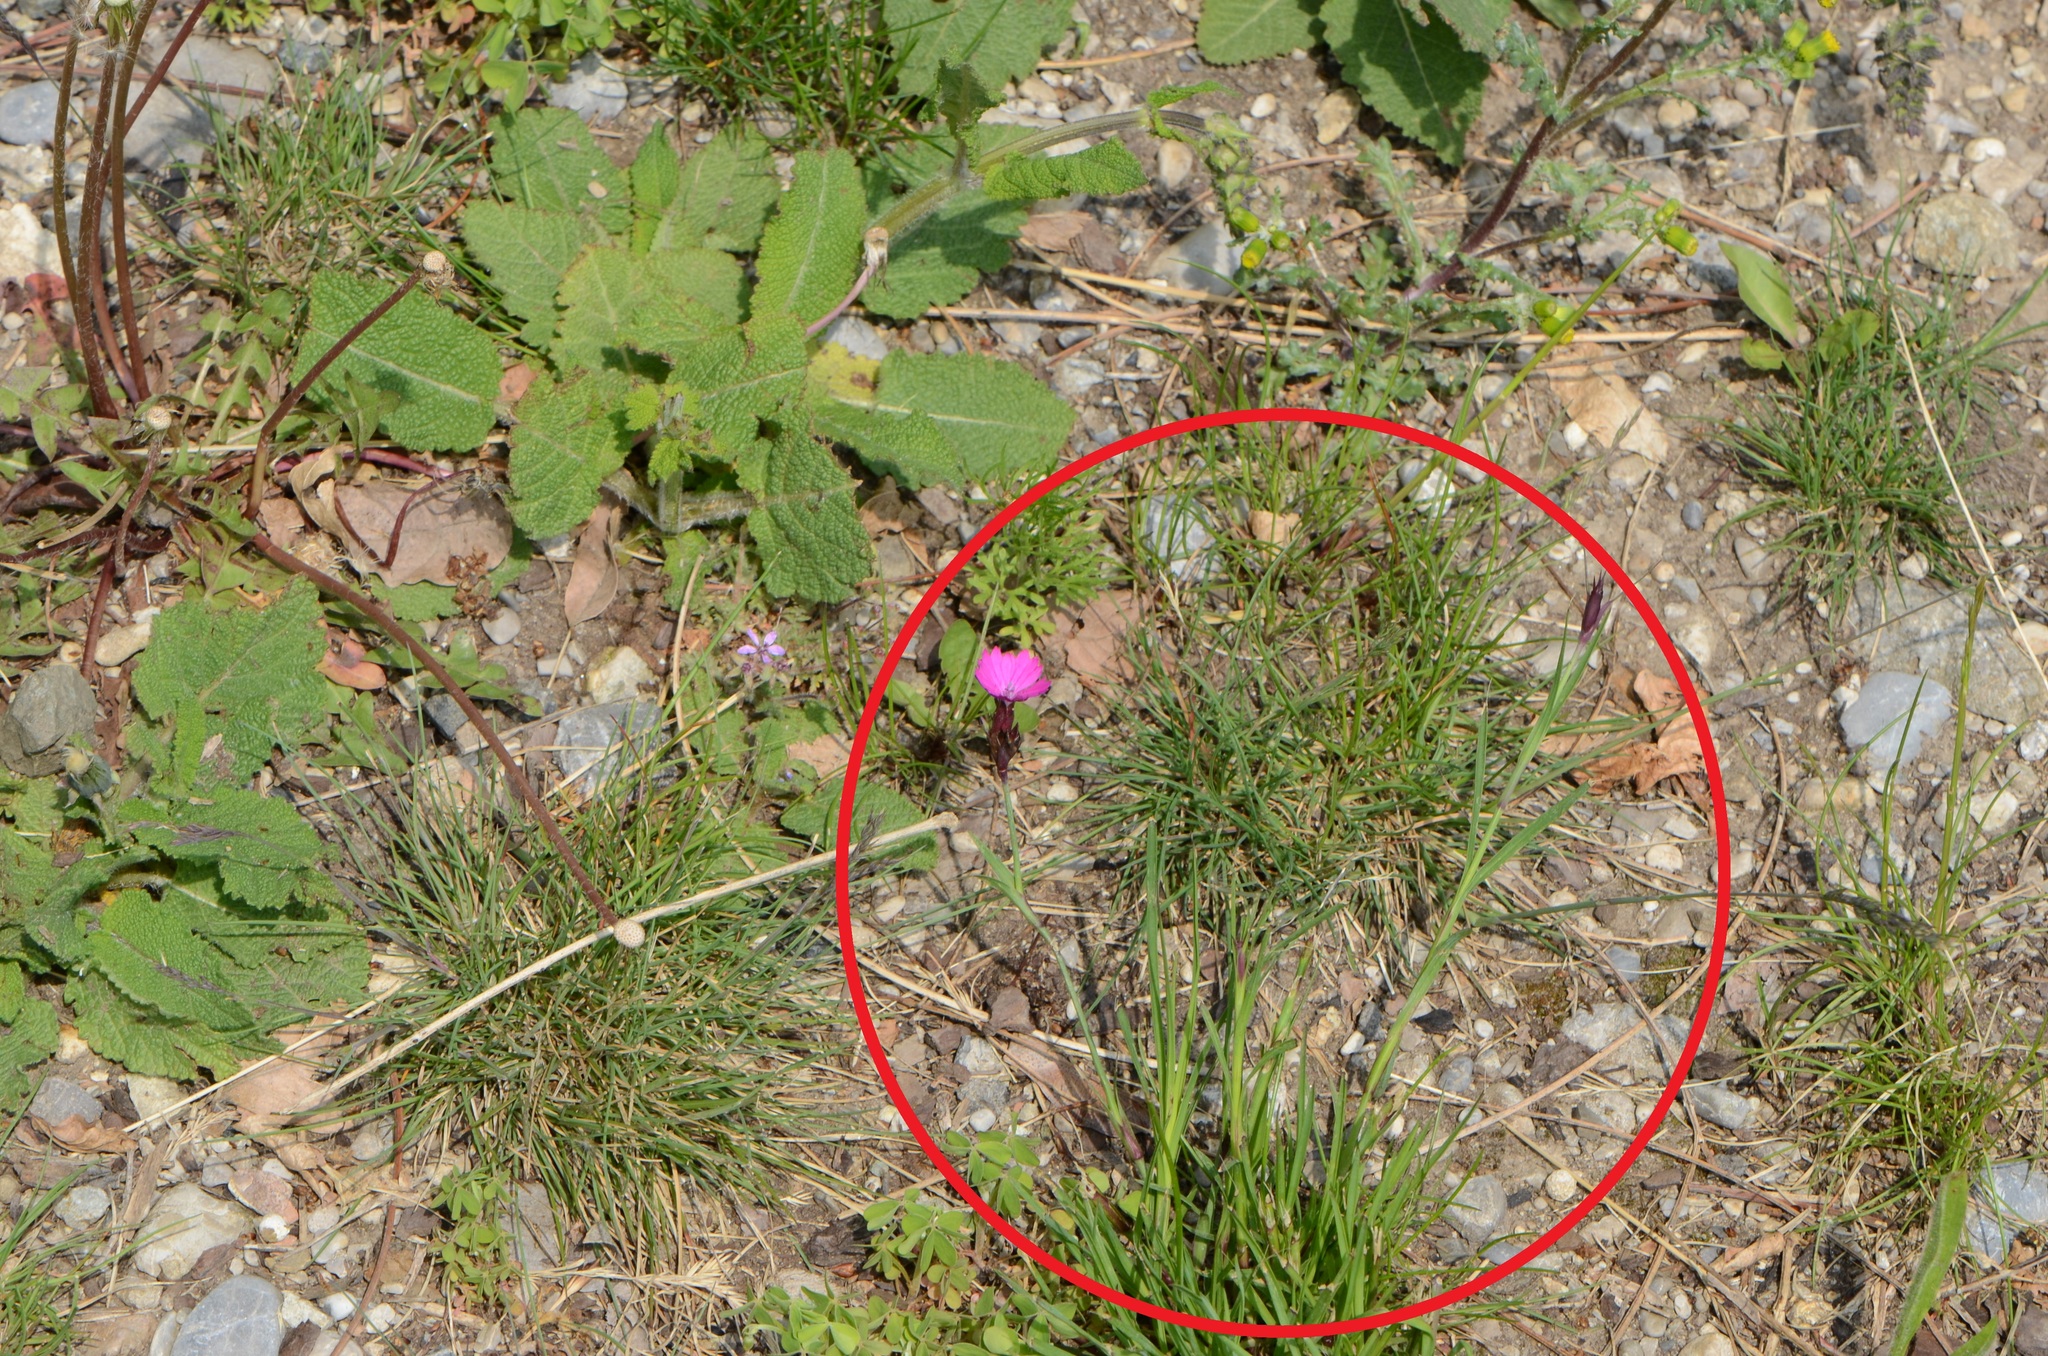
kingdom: Plantae
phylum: Tracheophyta
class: Magnoliopsida
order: Caryophyllales
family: Caryophyllaceae
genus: Dianthus
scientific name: Dianthus carthusianorum
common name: Carthusian pink
